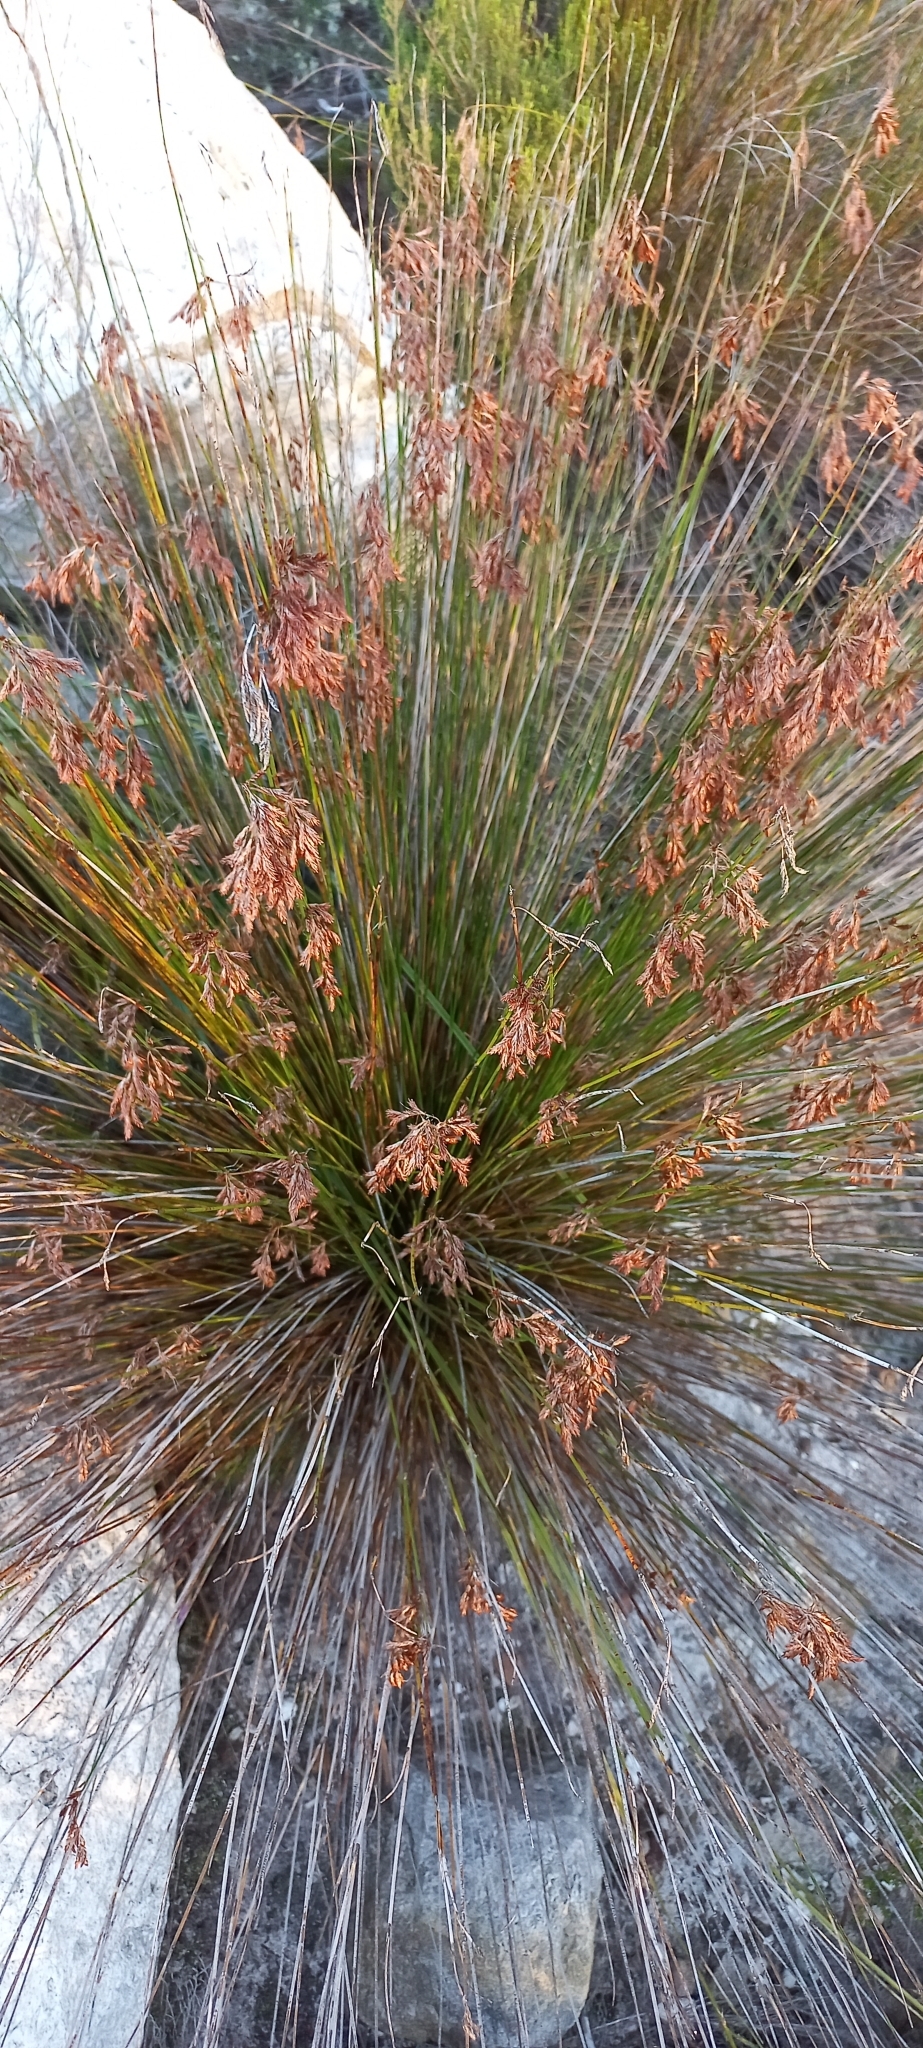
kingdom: Plantae
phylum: Tracheophyta
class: Liliopsida
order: Poales
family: Restionaceae
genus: Thamnochortus
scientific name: Thamnochortus lucens
